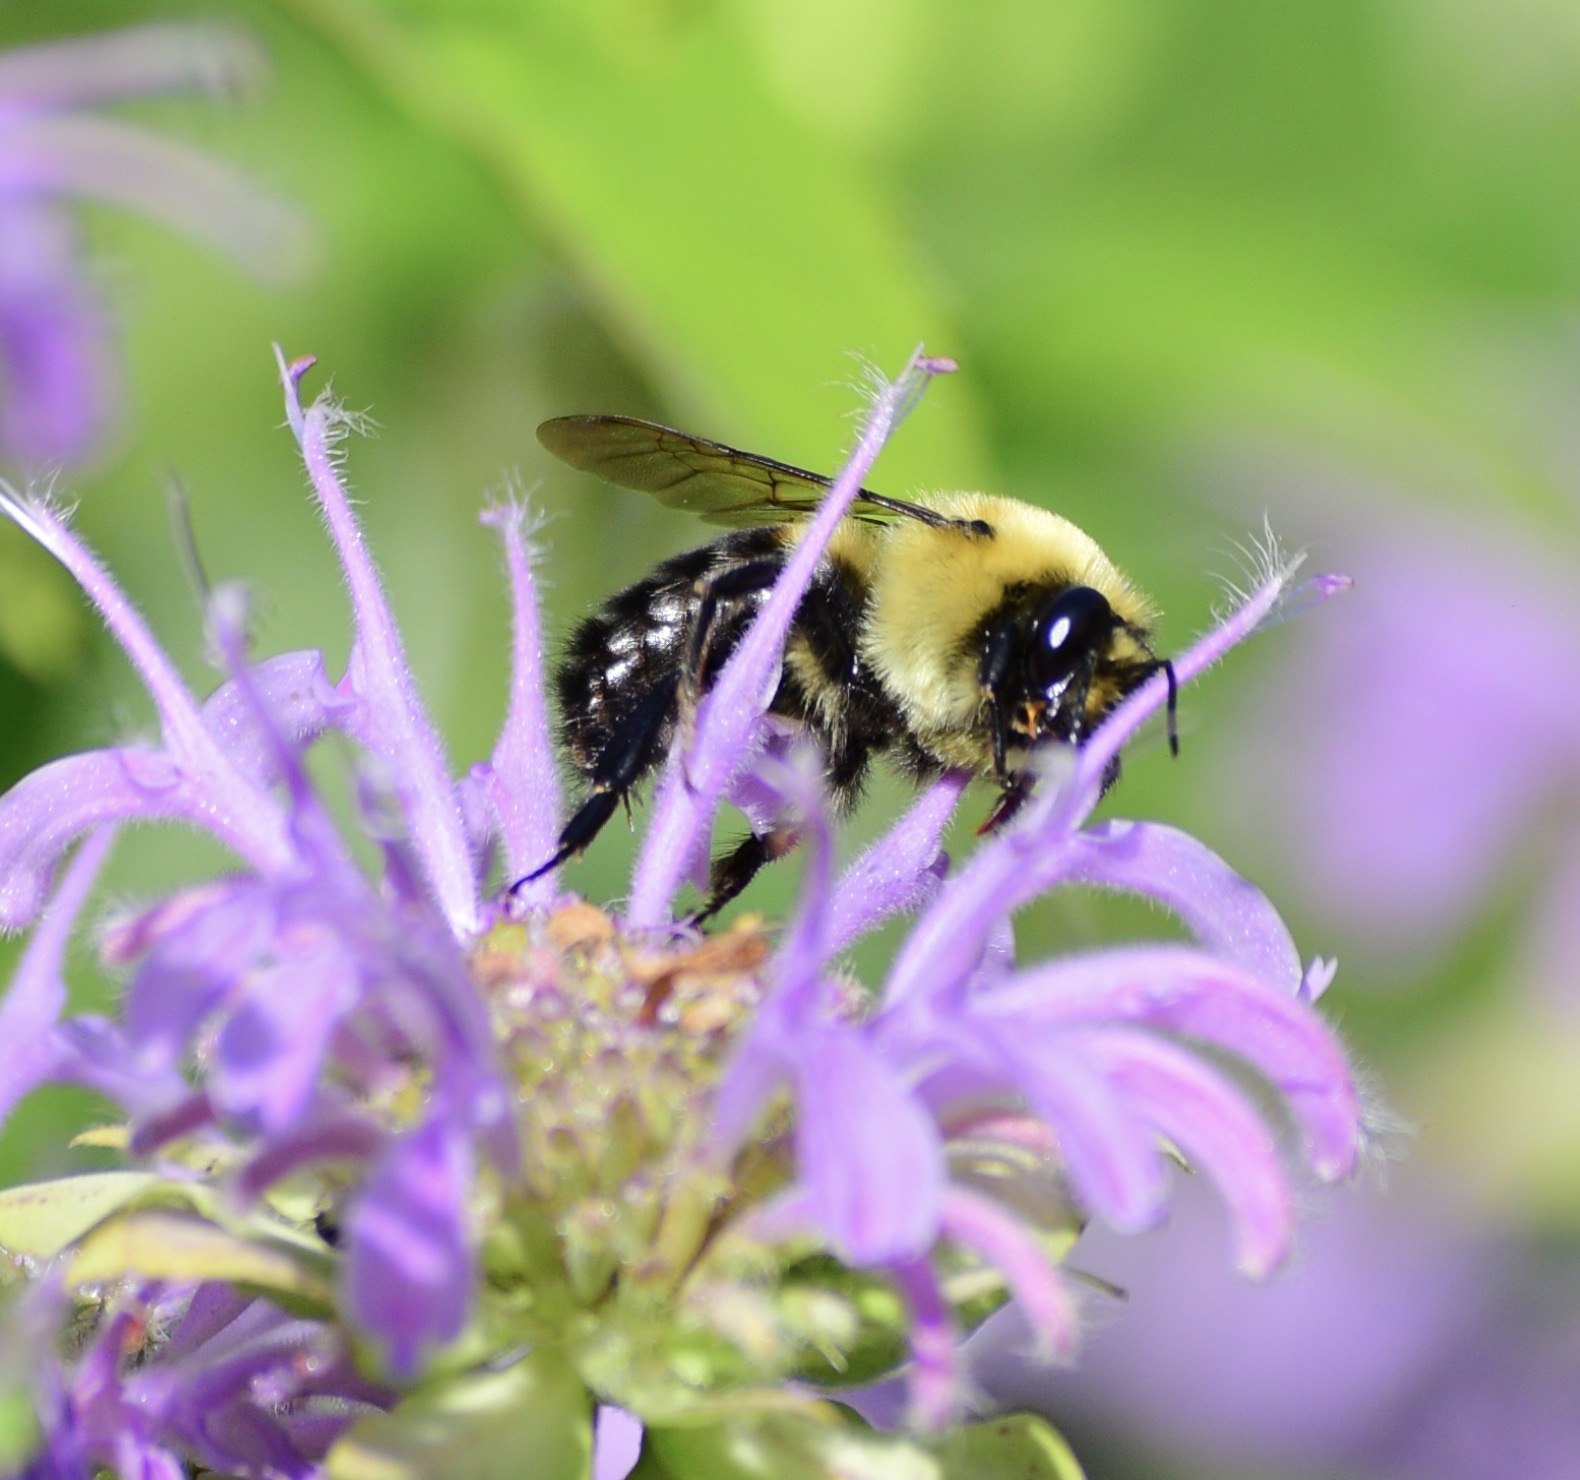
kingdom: Animalia
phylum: Arthropoda
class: Insecta
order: Hymenoptera
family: Apidae
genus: Bombus
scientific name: Bombus griseocollis
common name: Brown-belted bumble bee
